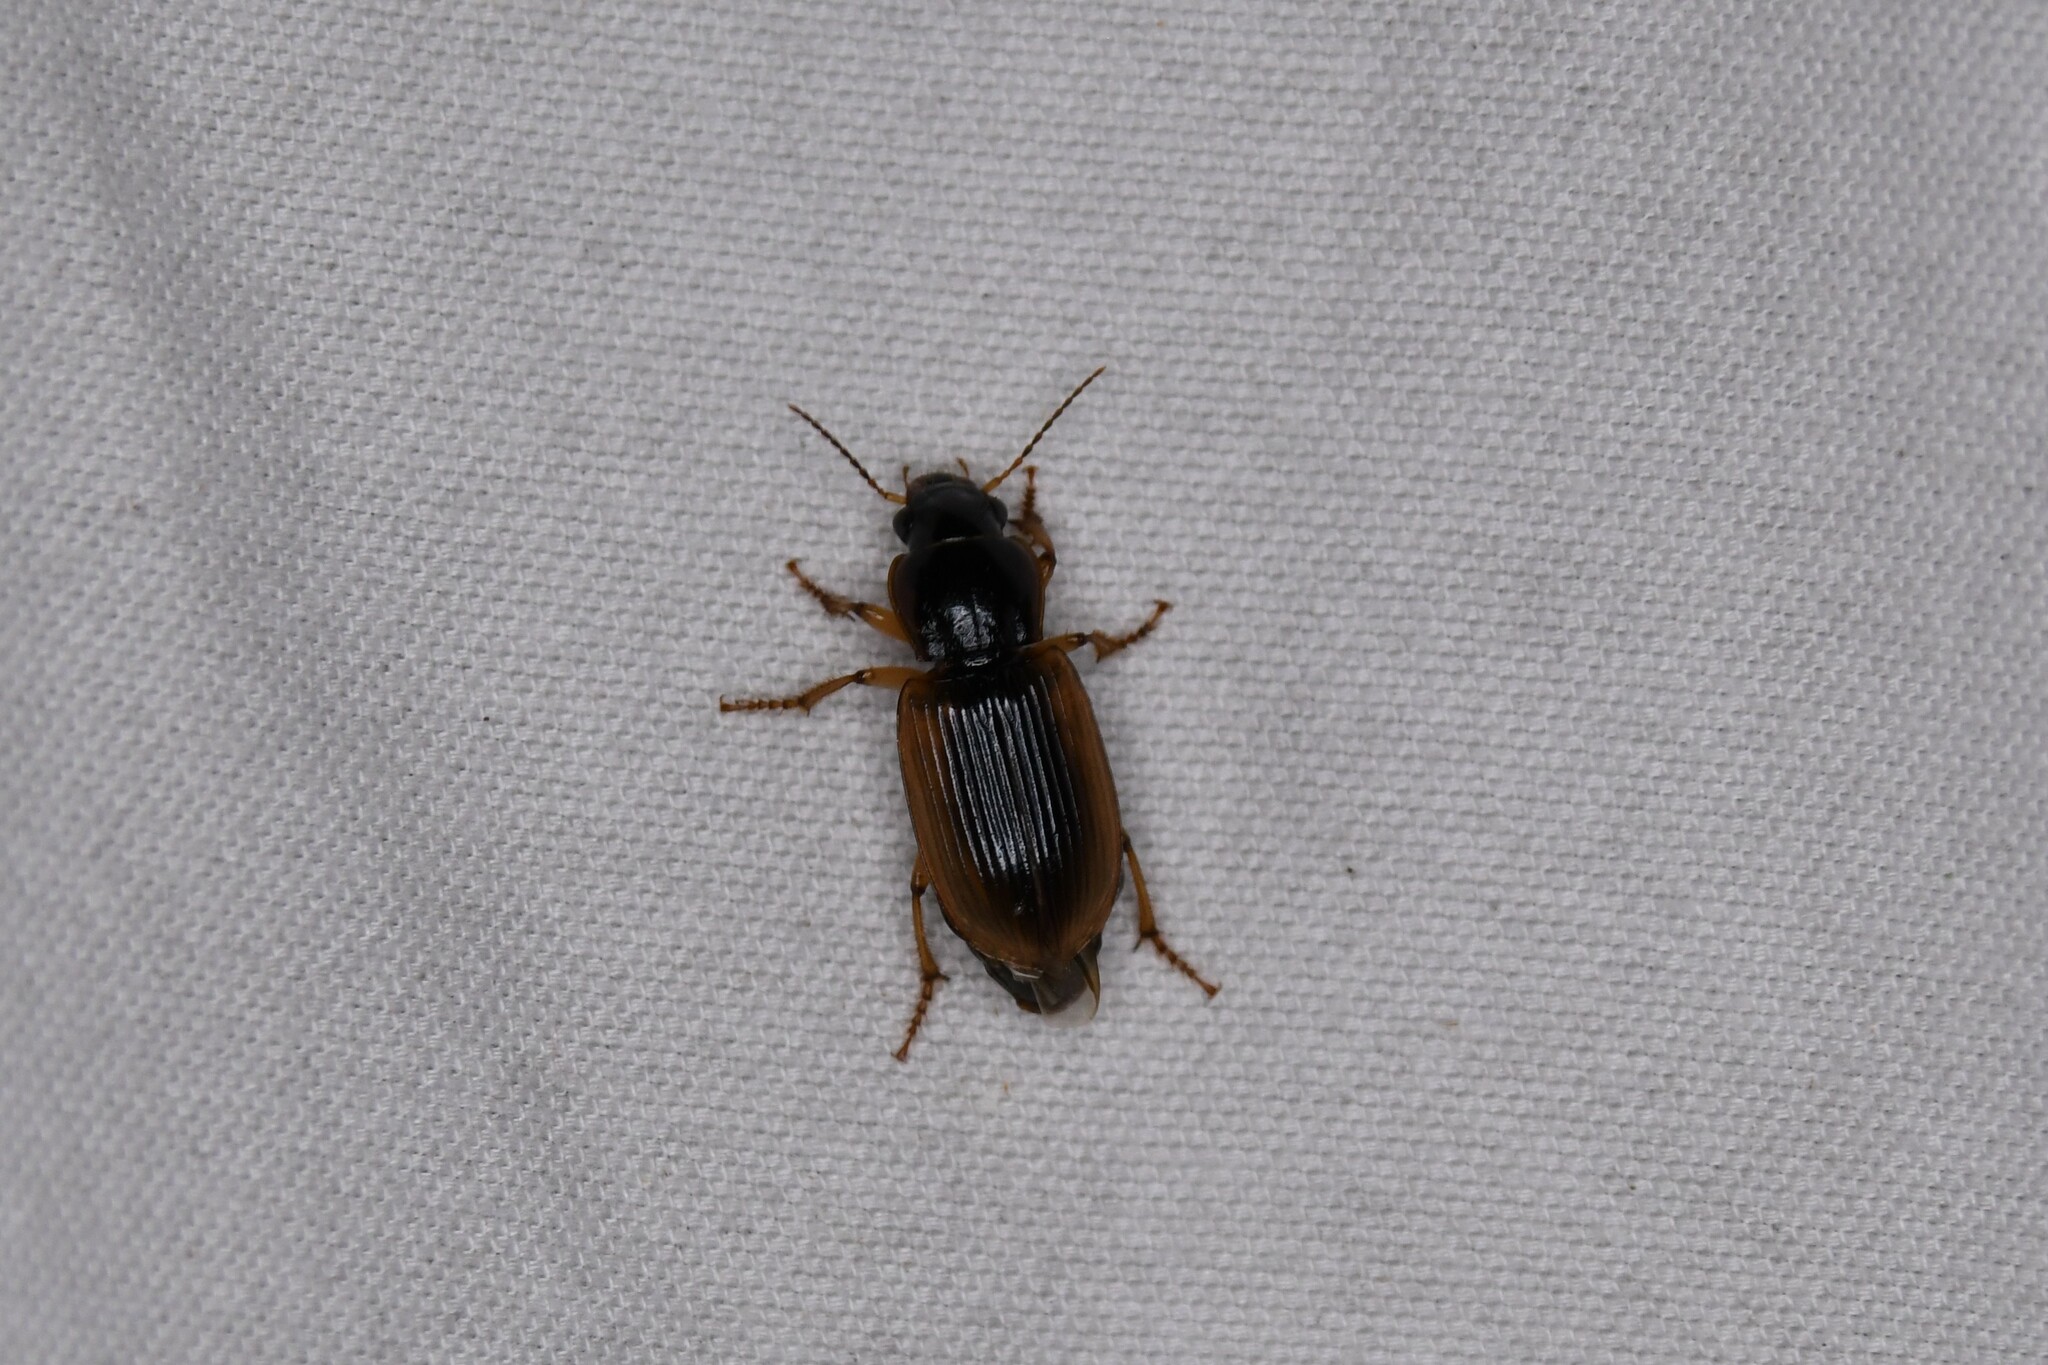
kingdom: Animalia
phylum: Arthropoda
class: Insecta
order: Coleoptera
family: Carabidae
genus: Anisodactylus
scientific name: Anisodactylus discoideus
